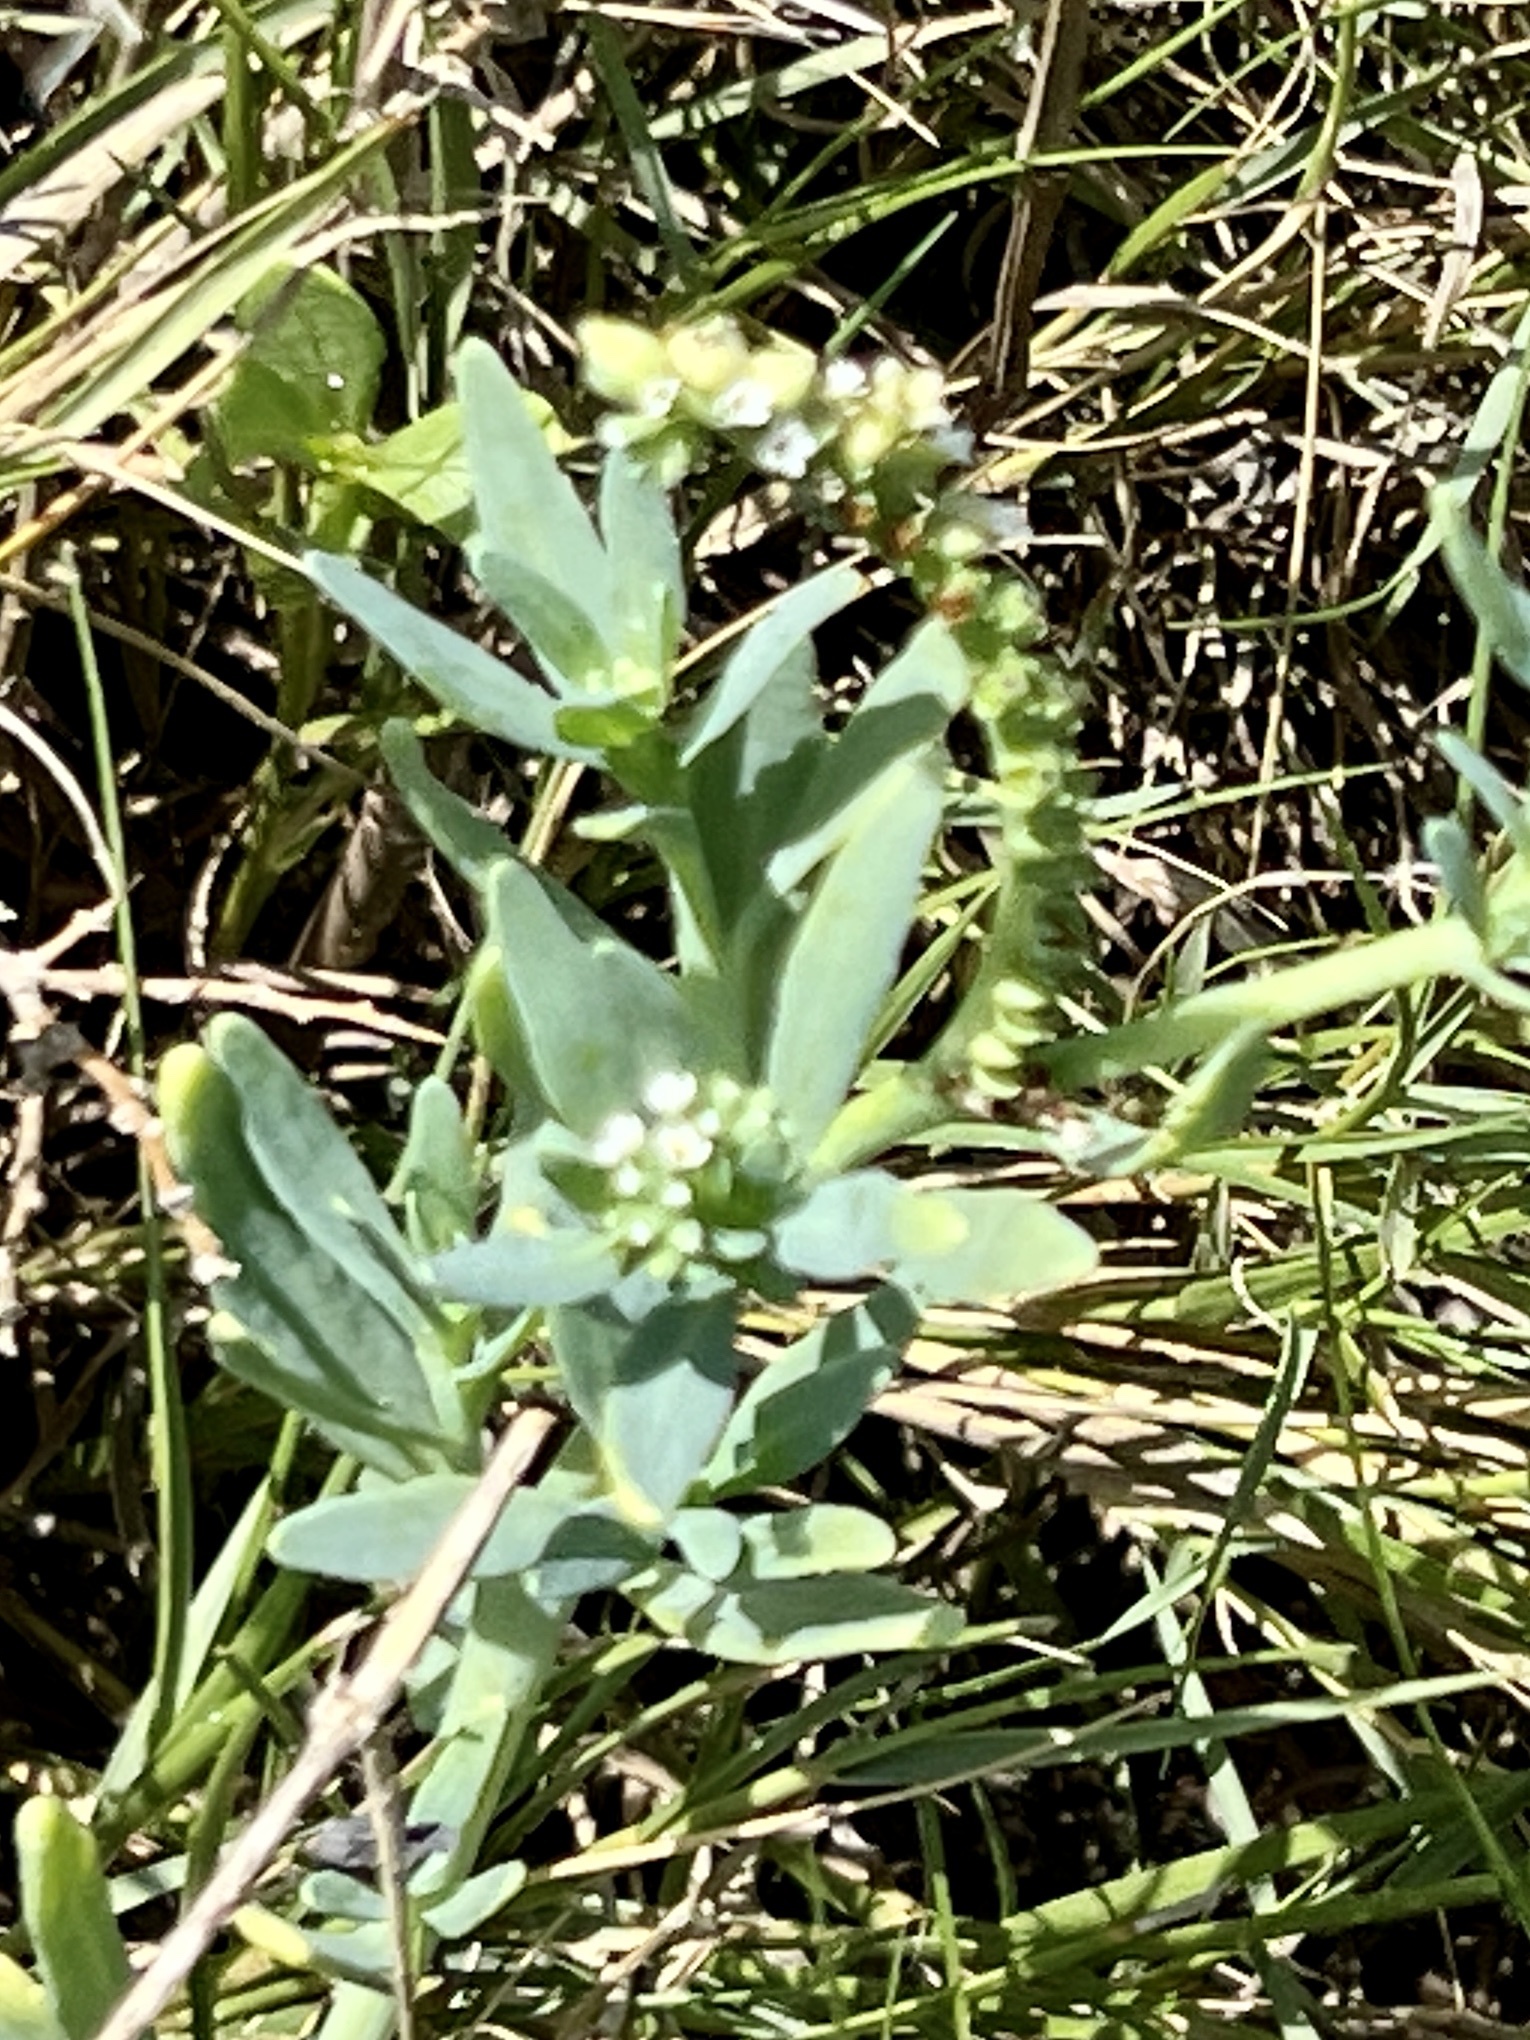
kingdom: Plantae
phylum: Tracheophyta
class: Magnoliopsida
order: Boraginales
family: Heliotropiaceae
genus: Heliotropium
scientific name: Heliotropium curassavicum
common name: Seaside heliotrope
